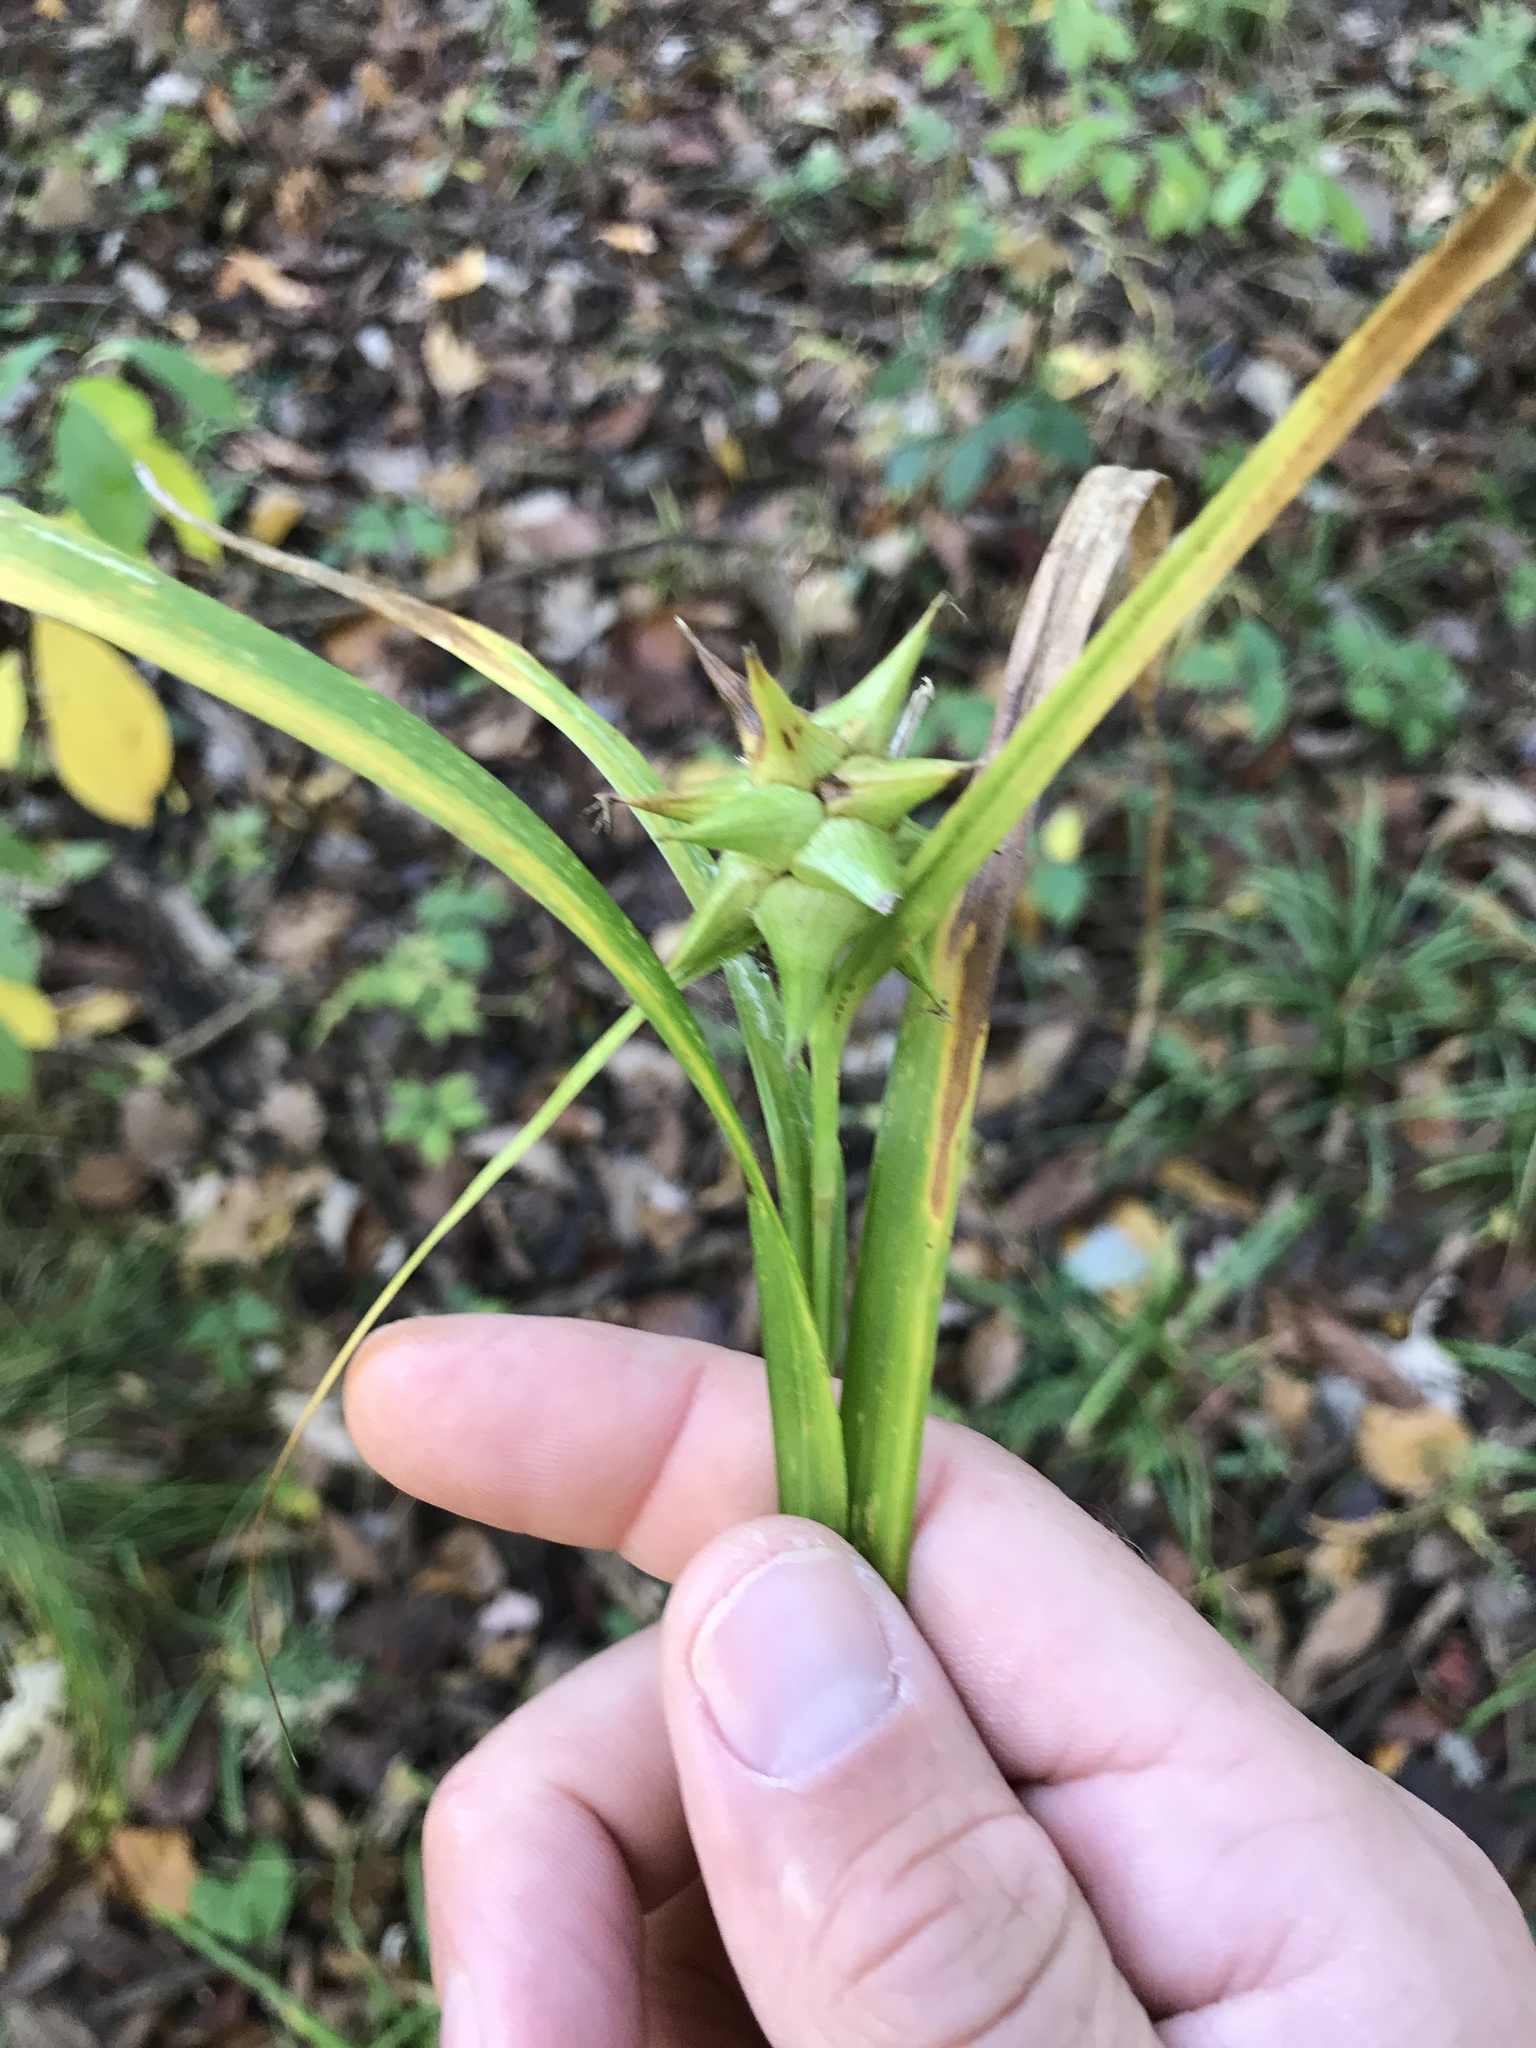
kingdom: Plantae
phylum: Tracheophyta
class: Liliopsida
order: Poales
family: Cyperaceae
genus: Carex
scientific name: Carex grayi
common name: Asa gray's sedge
